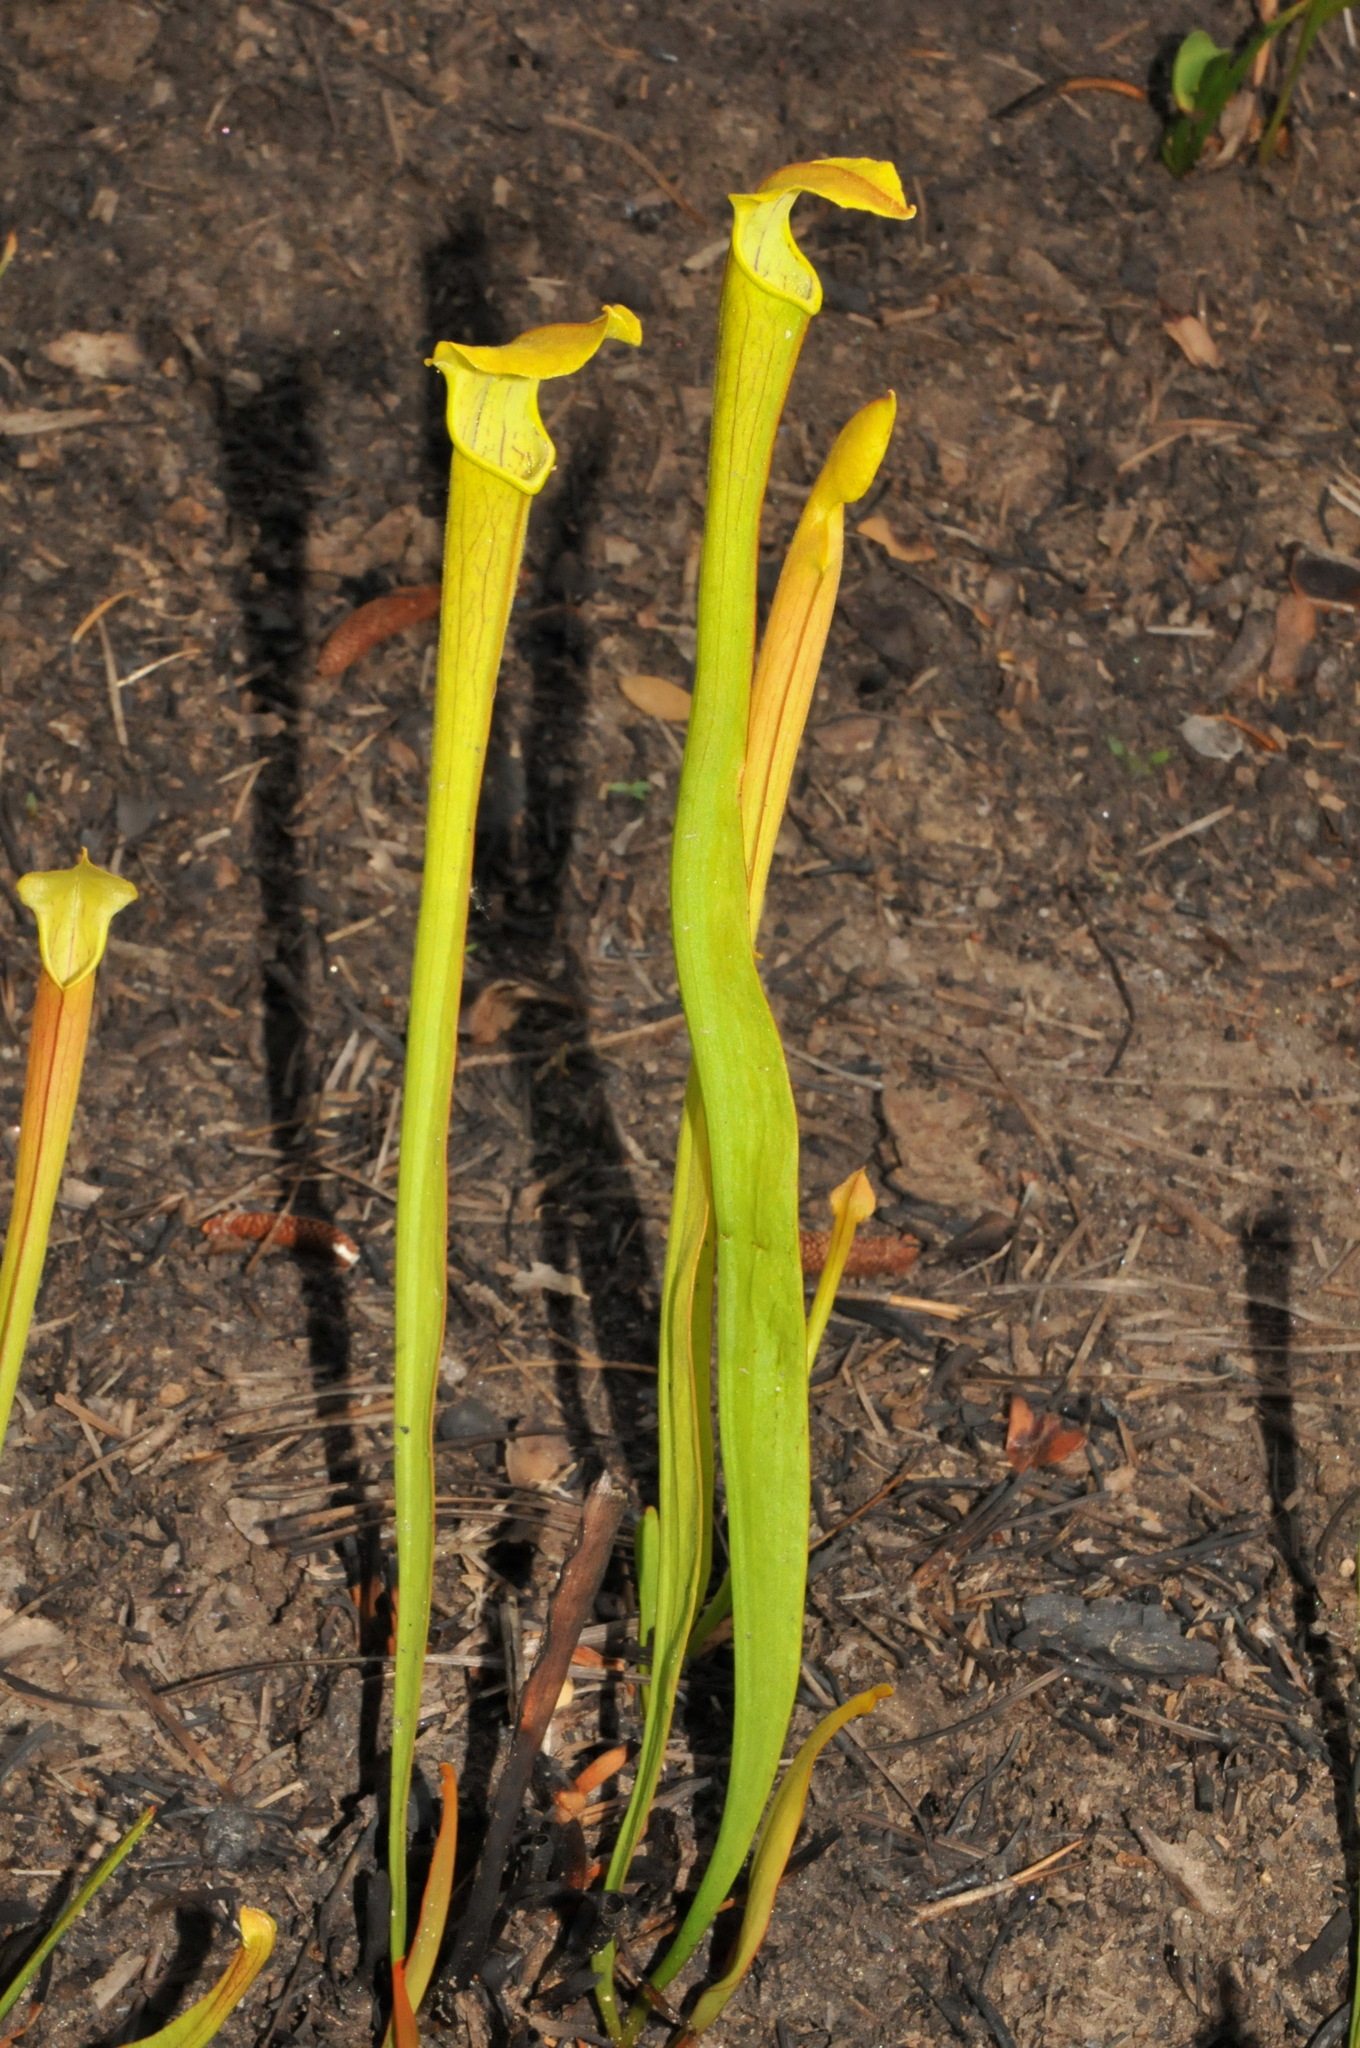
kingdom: Plantae
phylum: Tracheophyta
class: Magnoliopsida
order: Ericales
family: Sarraceniaceae
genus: Sarracenia
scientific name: Sarracenia rubra
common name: Sweet pitcherplant
